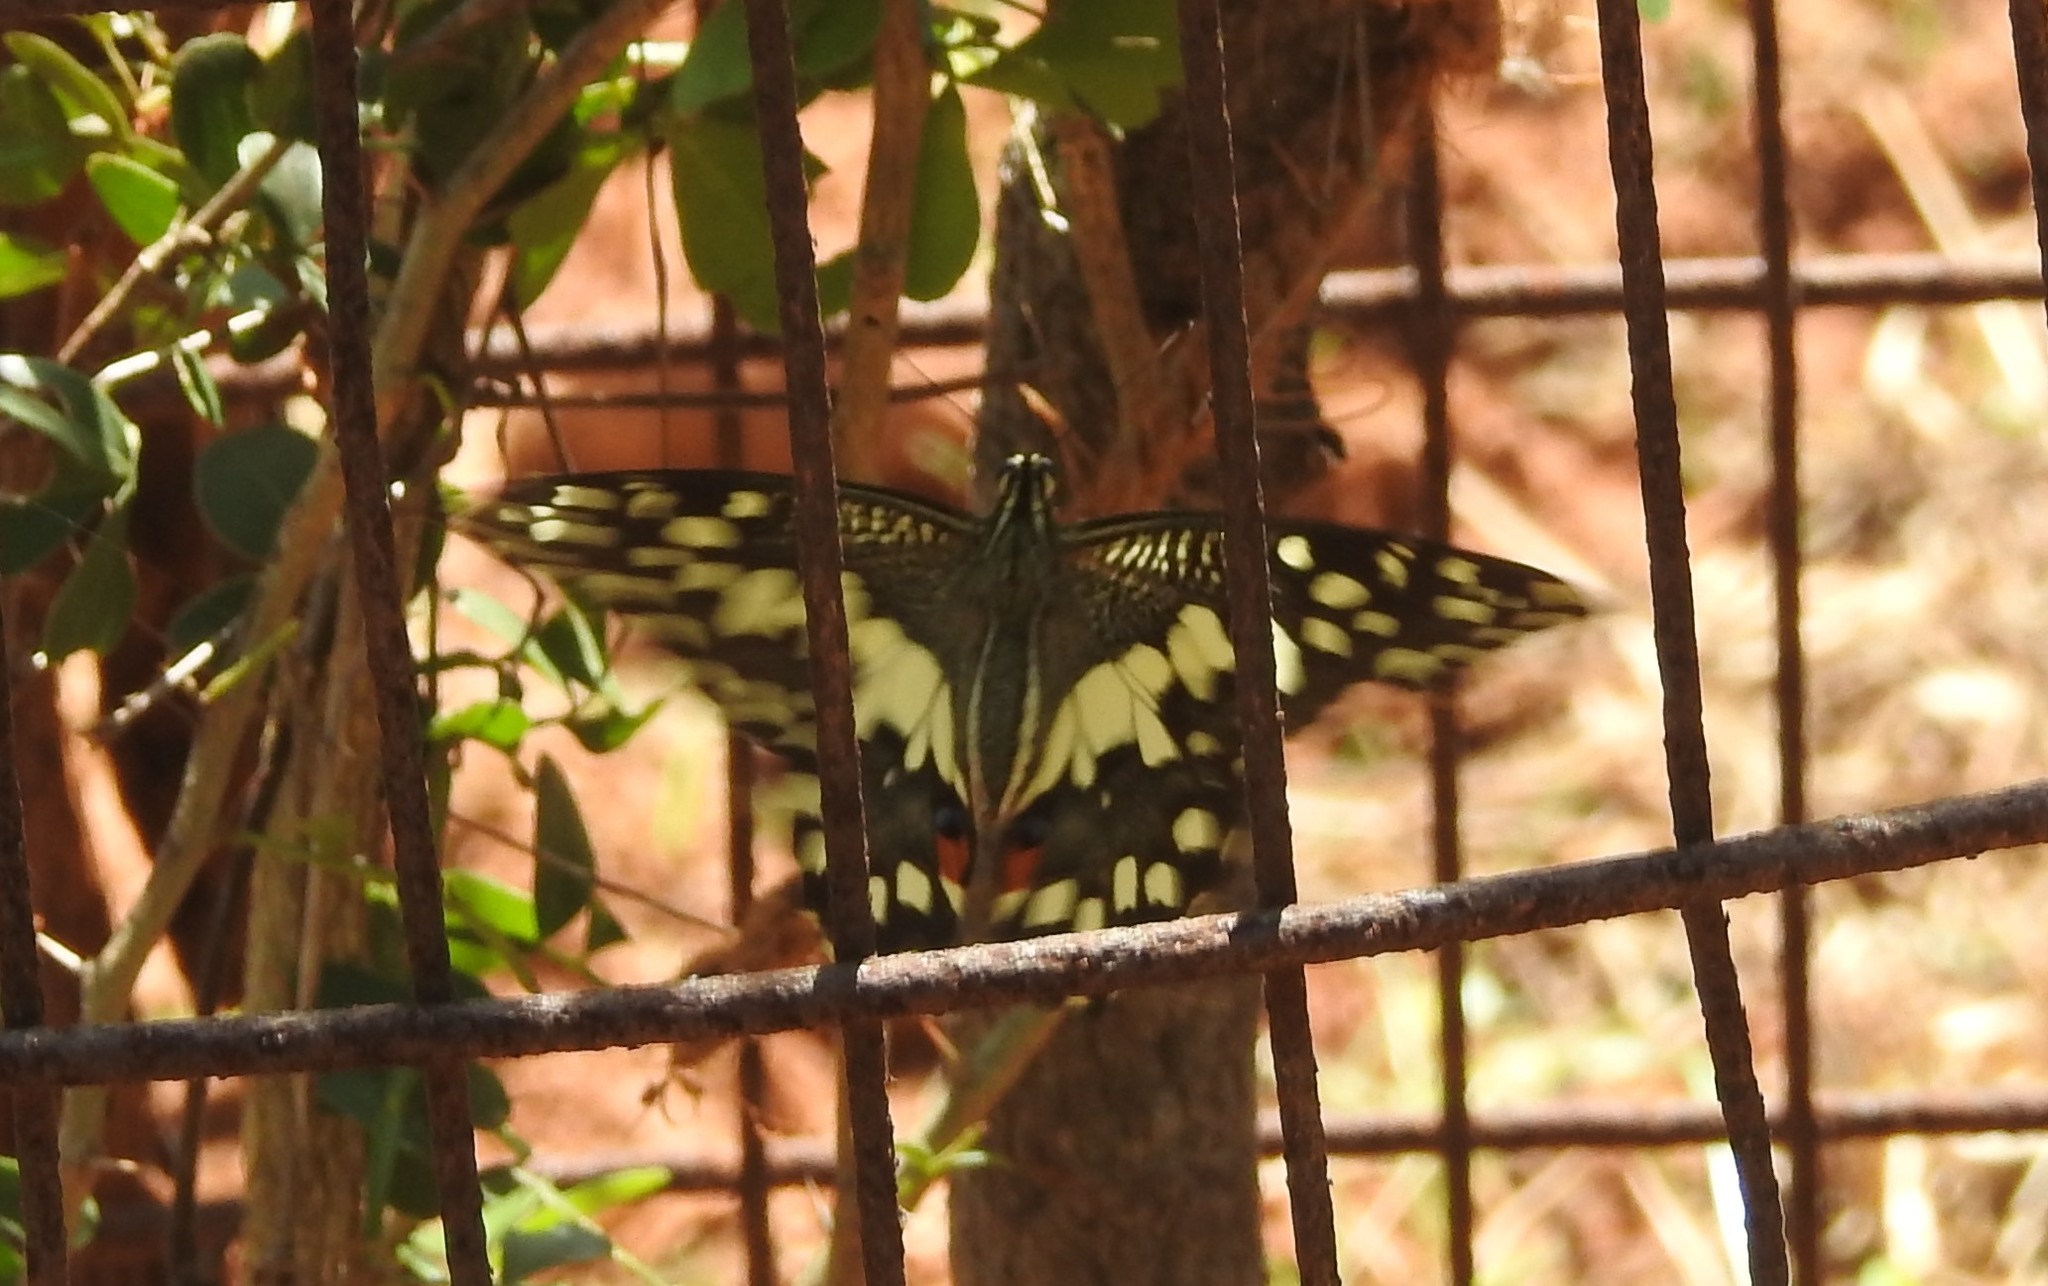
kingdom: Animalia
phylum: Arthropoda
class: Insecta
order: Lepidoptera
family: Papilionidae
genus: Papilio
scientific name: Papilio demoleus
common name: Lime butterfly
